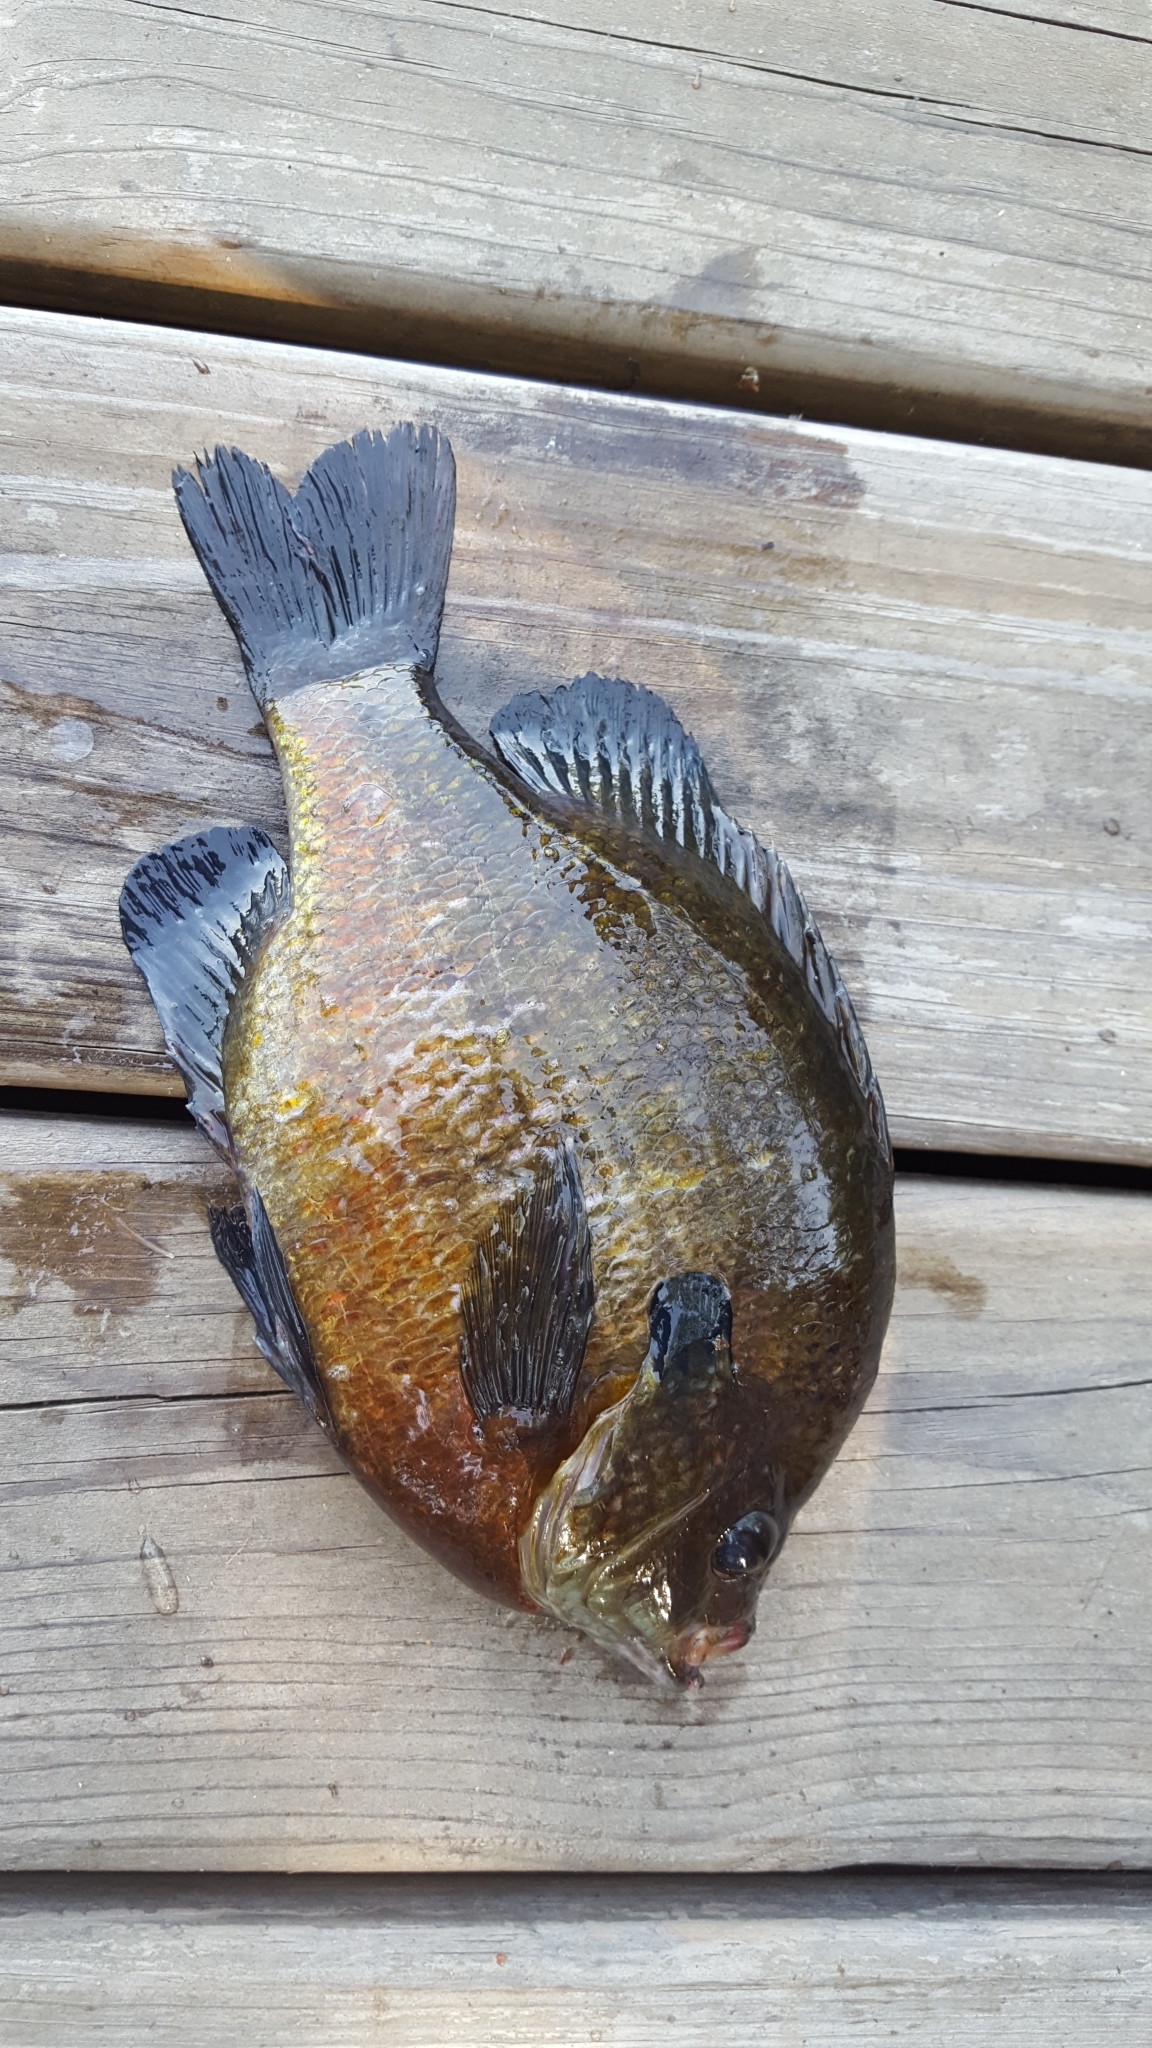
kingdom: Animalia
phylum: Chordata
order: Perciformes
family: Centrarchidae
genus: Lepomis
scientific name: Lepomis macrochirus
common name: Bluegill
